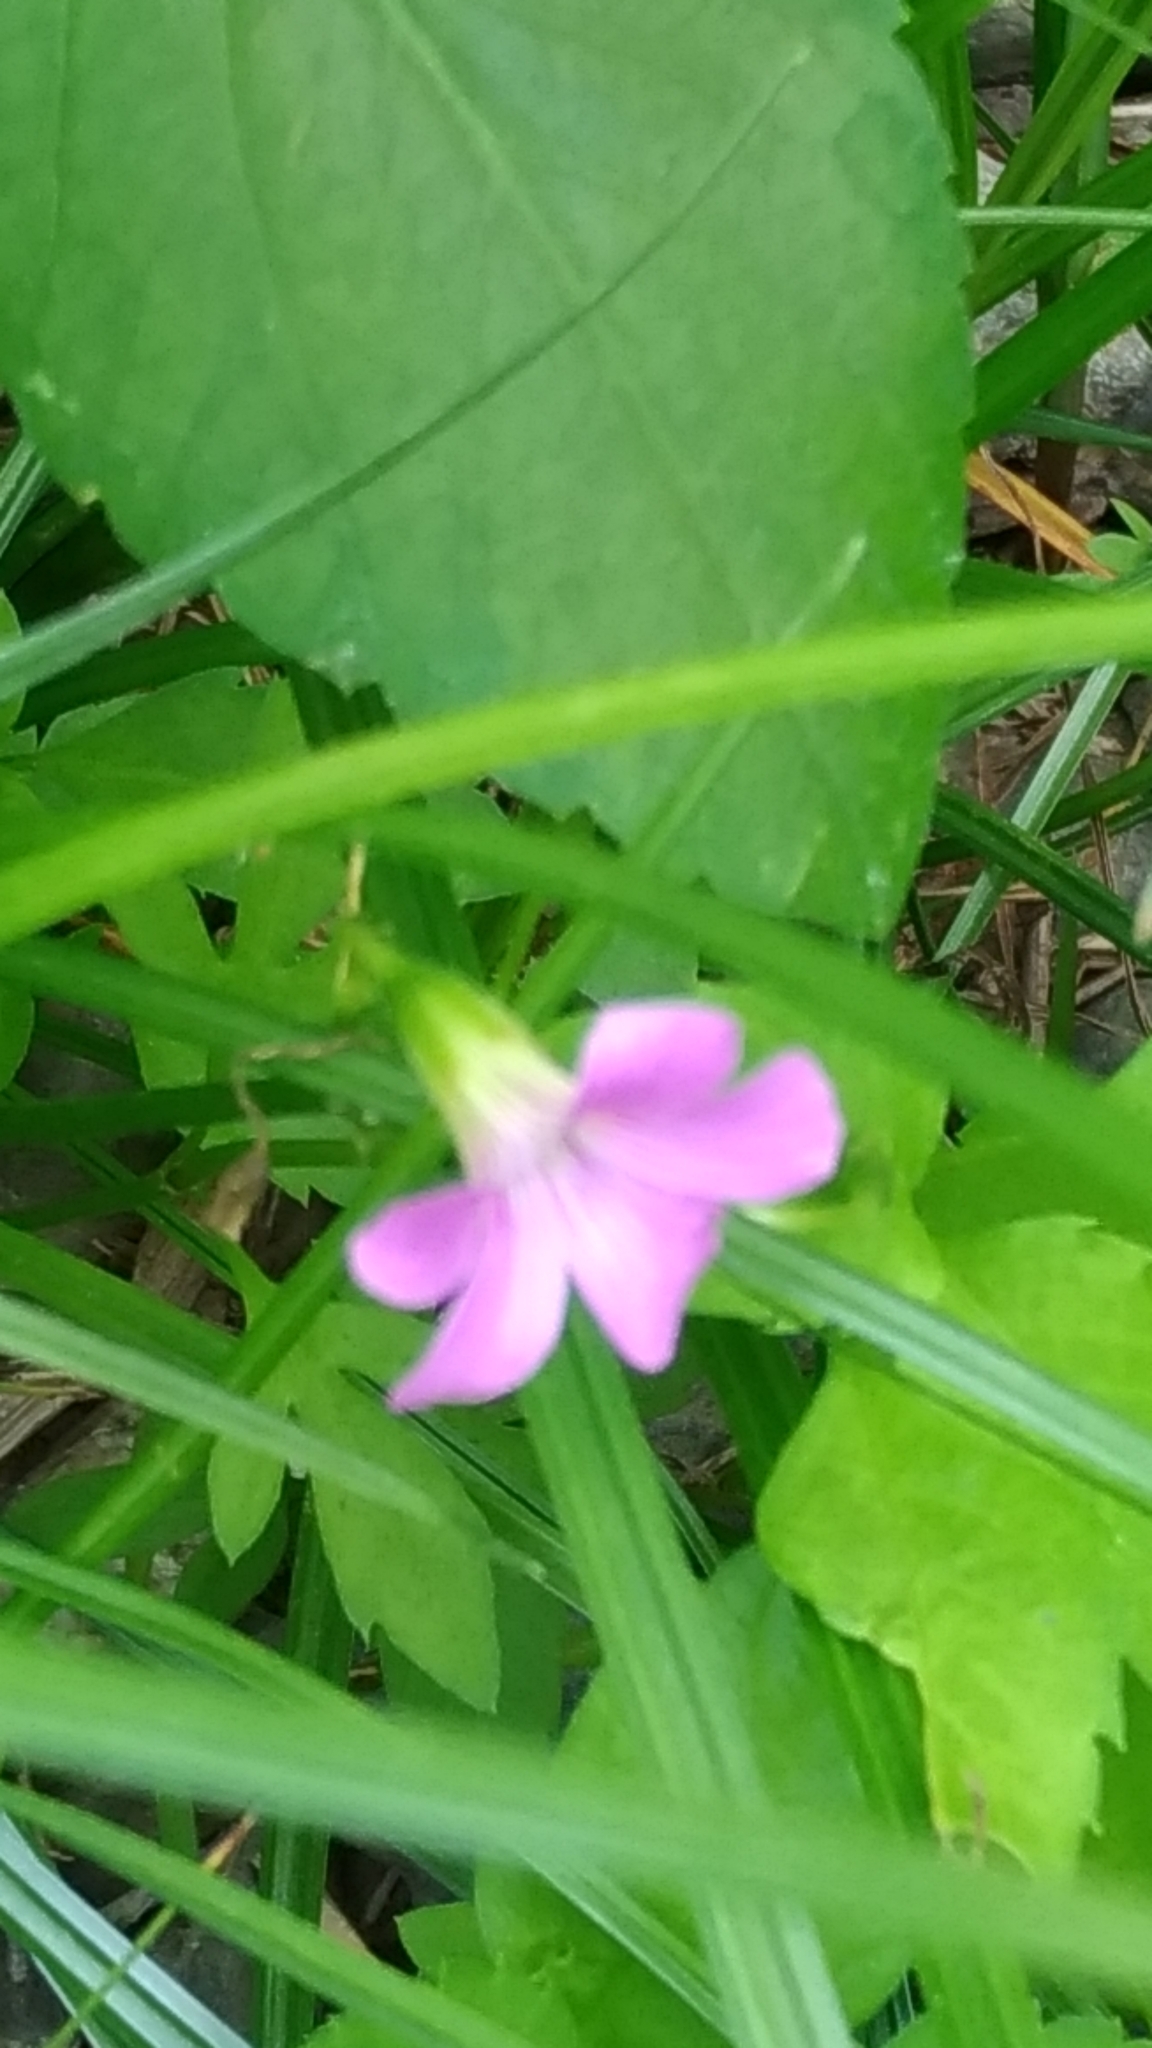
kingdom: Plantae
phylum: Tracheophyta
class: Magnoliopsida
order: Oxalidales
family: Oxalidaceae
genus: Oxalis
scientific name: Oxalis debilis
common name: Large-flowered pink-sorrel
